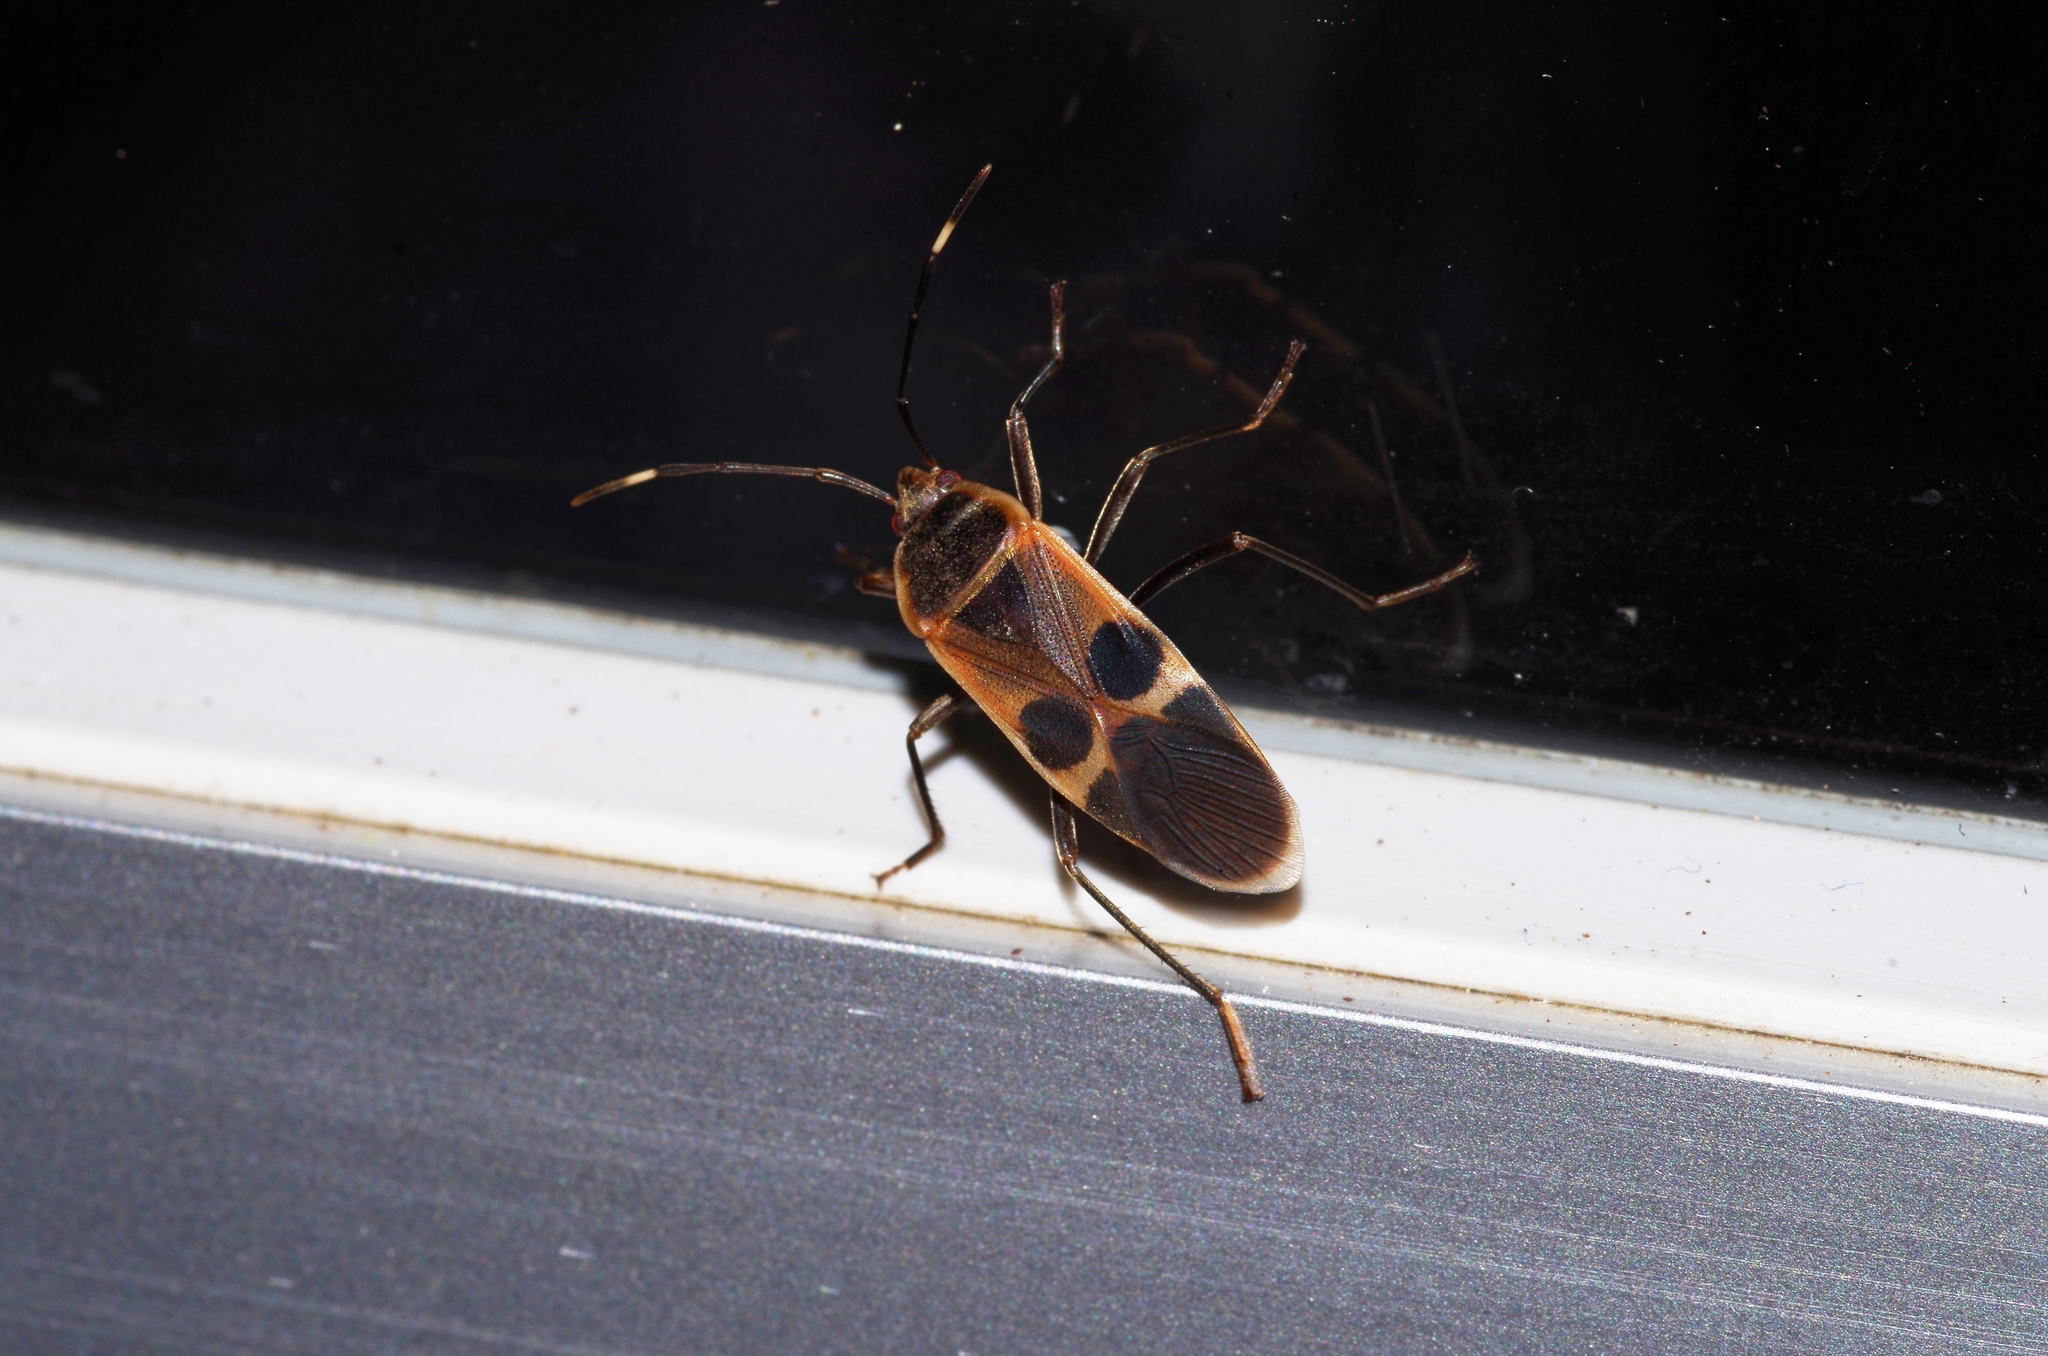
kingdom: Animalia
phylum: Arthropoda
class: Insecta
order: Hemiptera
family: Largidae
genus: Physopelta
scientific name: Physopelta gutta
